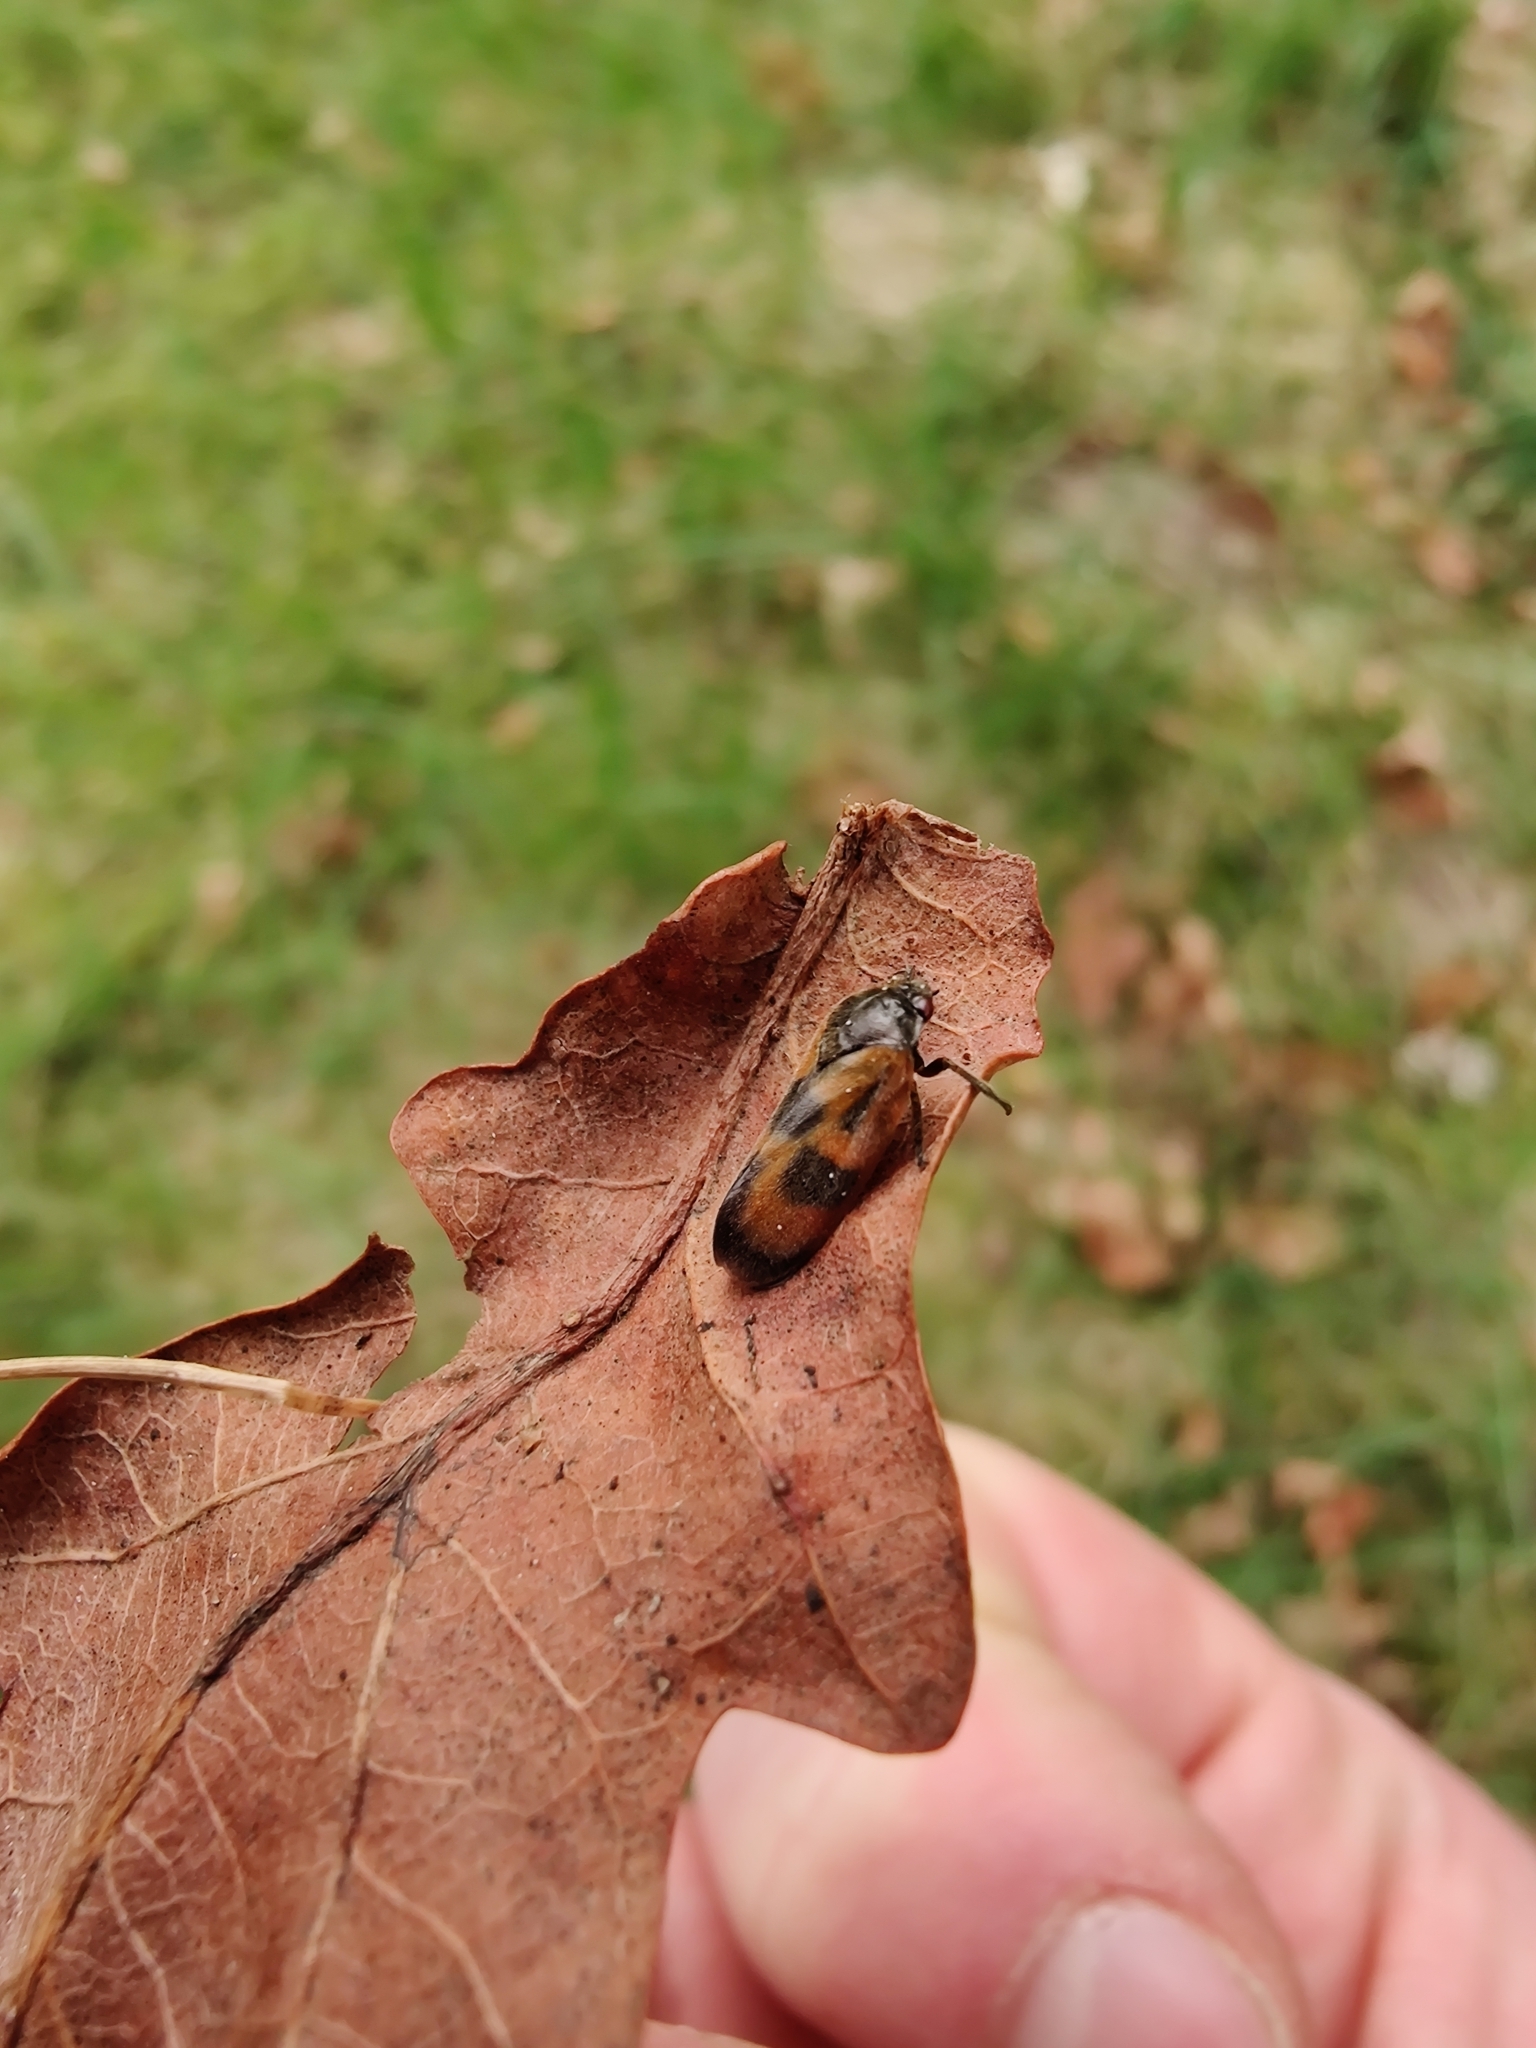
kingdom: Animalia
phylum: Arthropoda
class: Insecta
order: Hemiptera
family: Cercopidae
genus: Haematoloma
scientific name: Haematoloma dorsata
